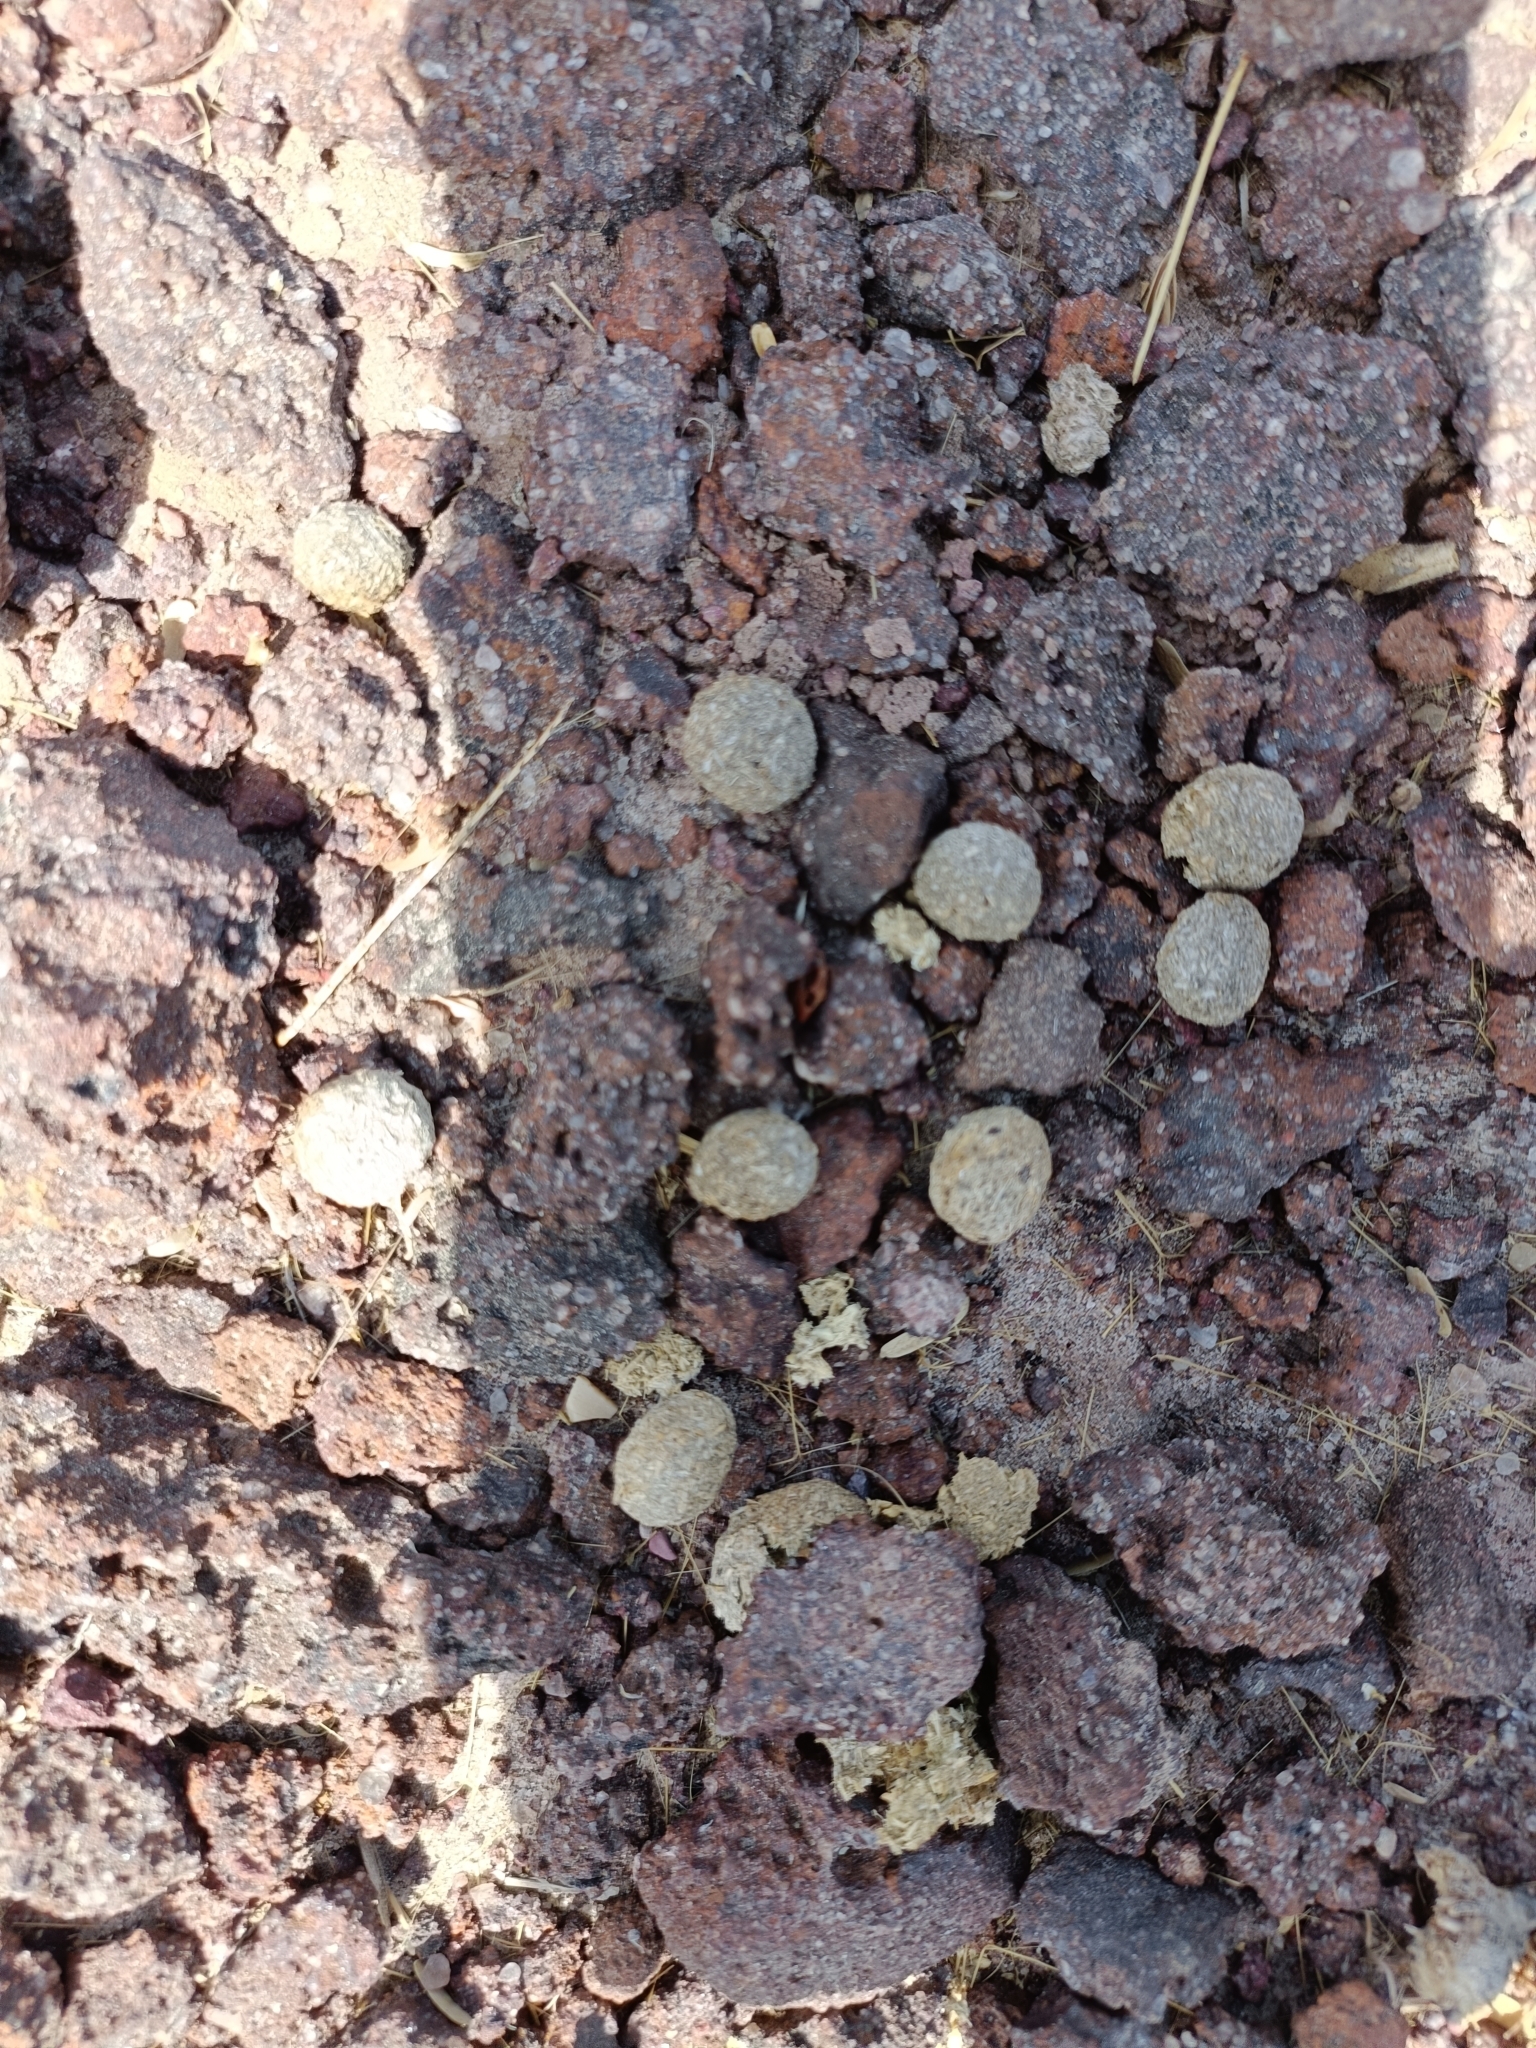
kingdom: Animalia
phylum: Chordata
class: Mammalia
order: Lagomorpha
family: Leporidae
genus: Lepus
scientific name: Lepus nigricollis
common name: Indian hare
